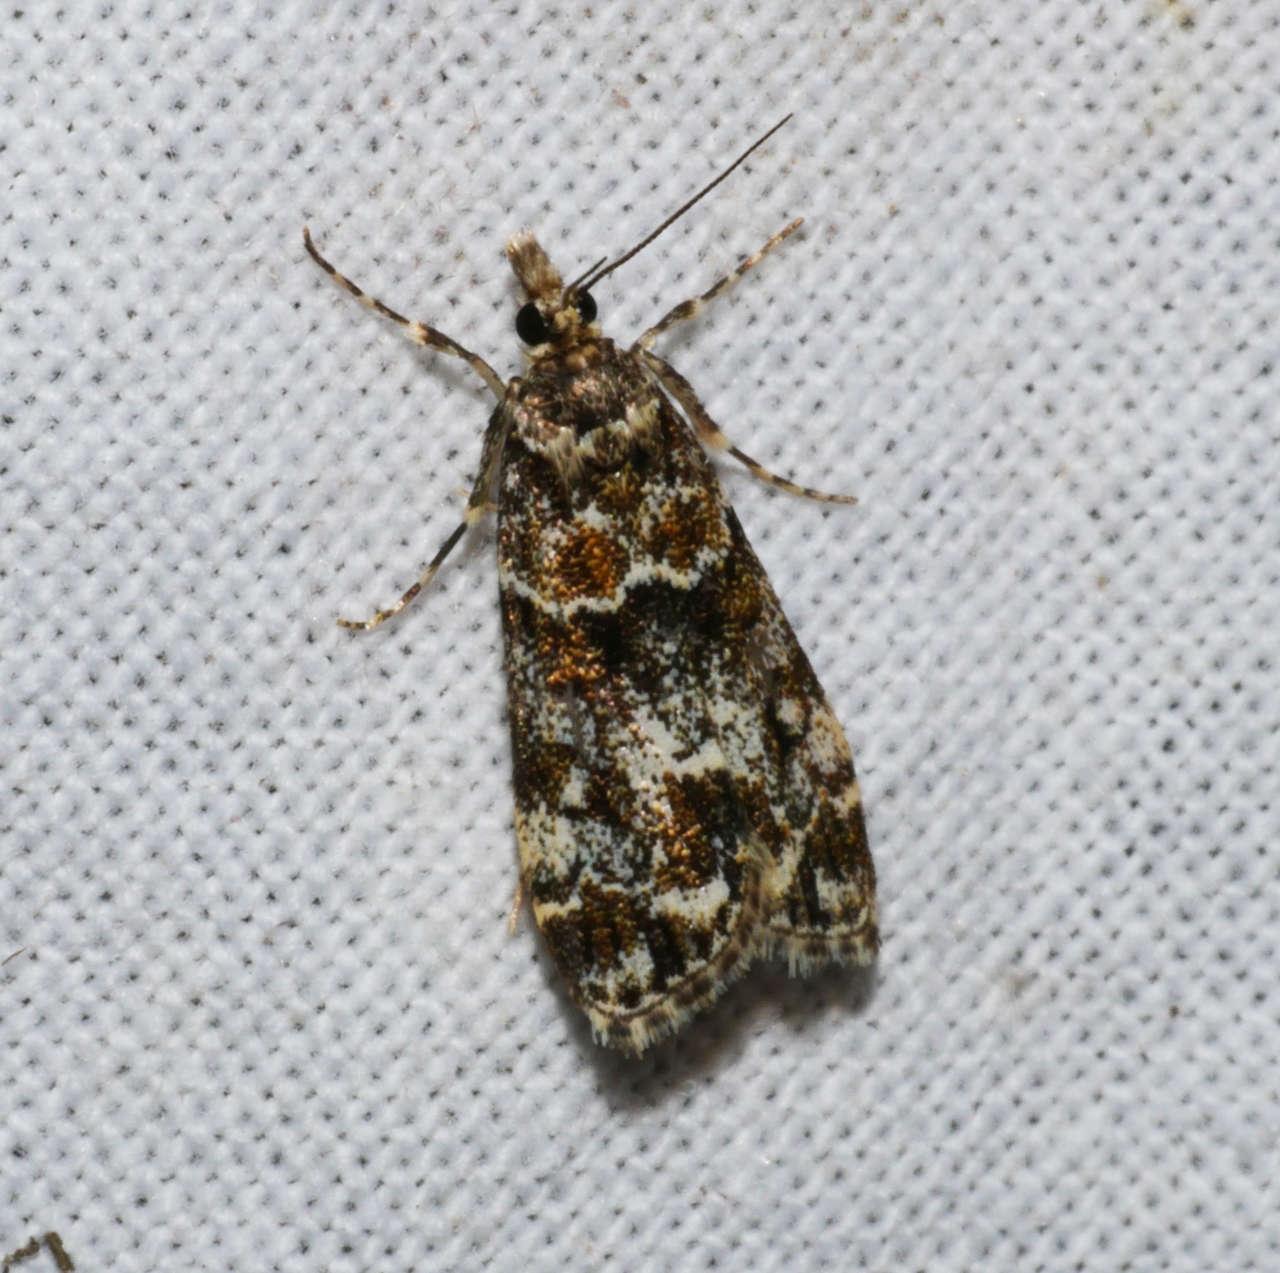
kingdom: Animalia
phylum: Arthropoda
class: Insecta
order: Lepidoptera
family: Crambidae
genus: Scoparia
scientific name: Scoparia syntaracta
